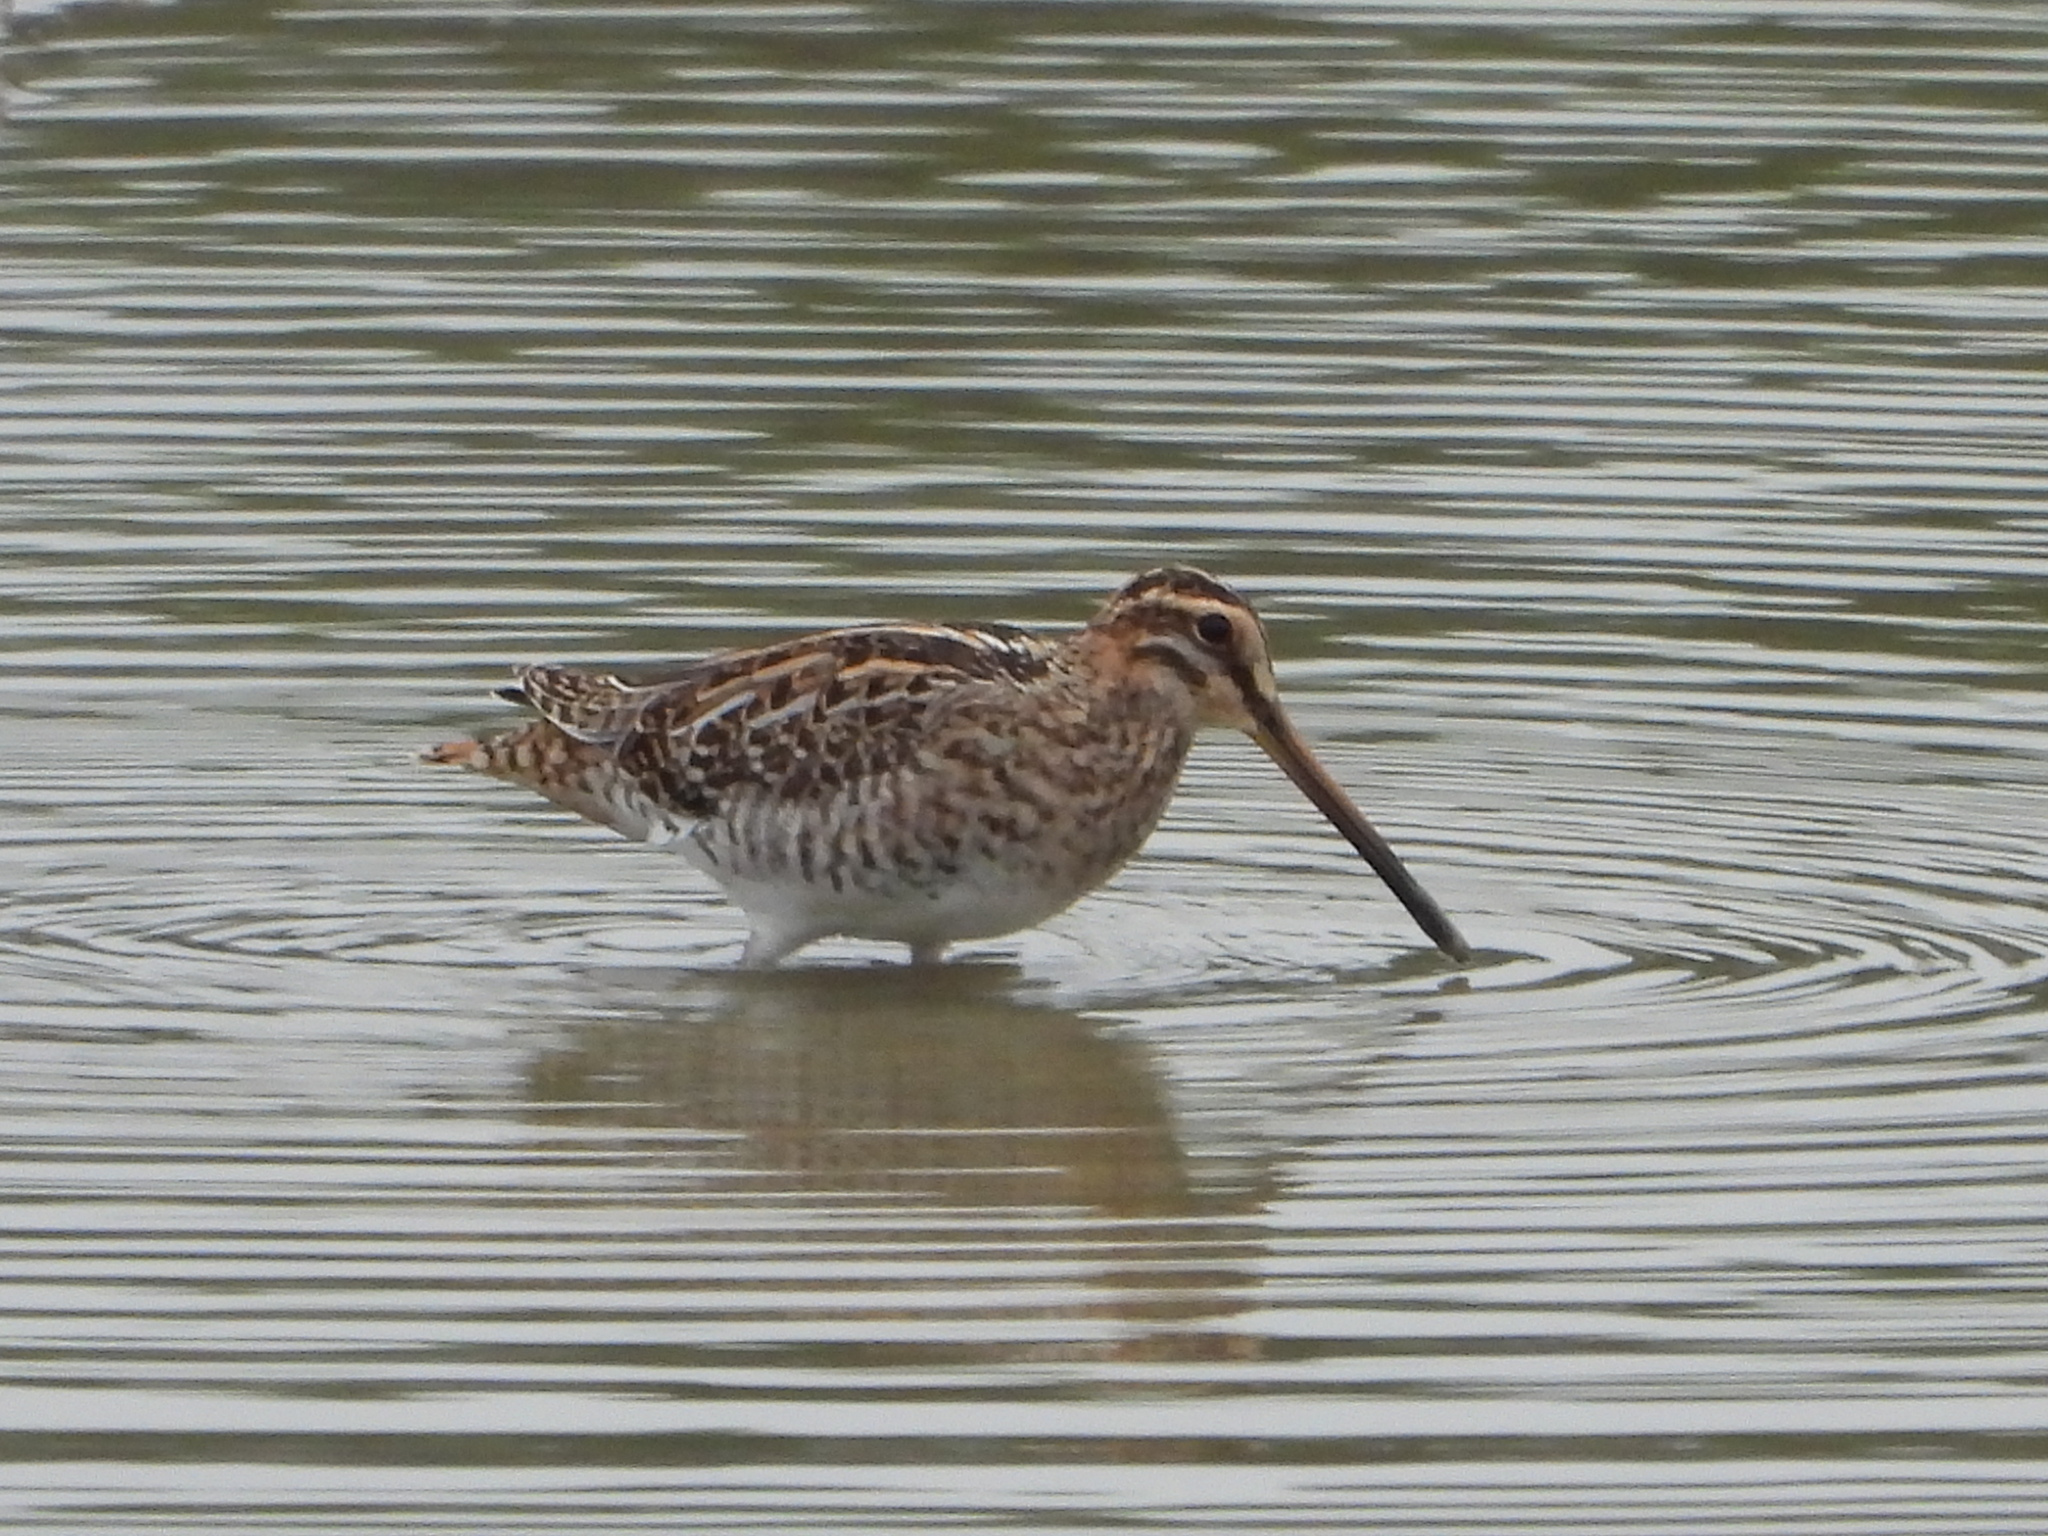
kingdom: Animalia
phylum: Chordata
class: Aves
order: Charadriiformes
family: Scolopacidae
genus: Gallinago
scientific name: Gallinago gallinago
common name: Common snipe
